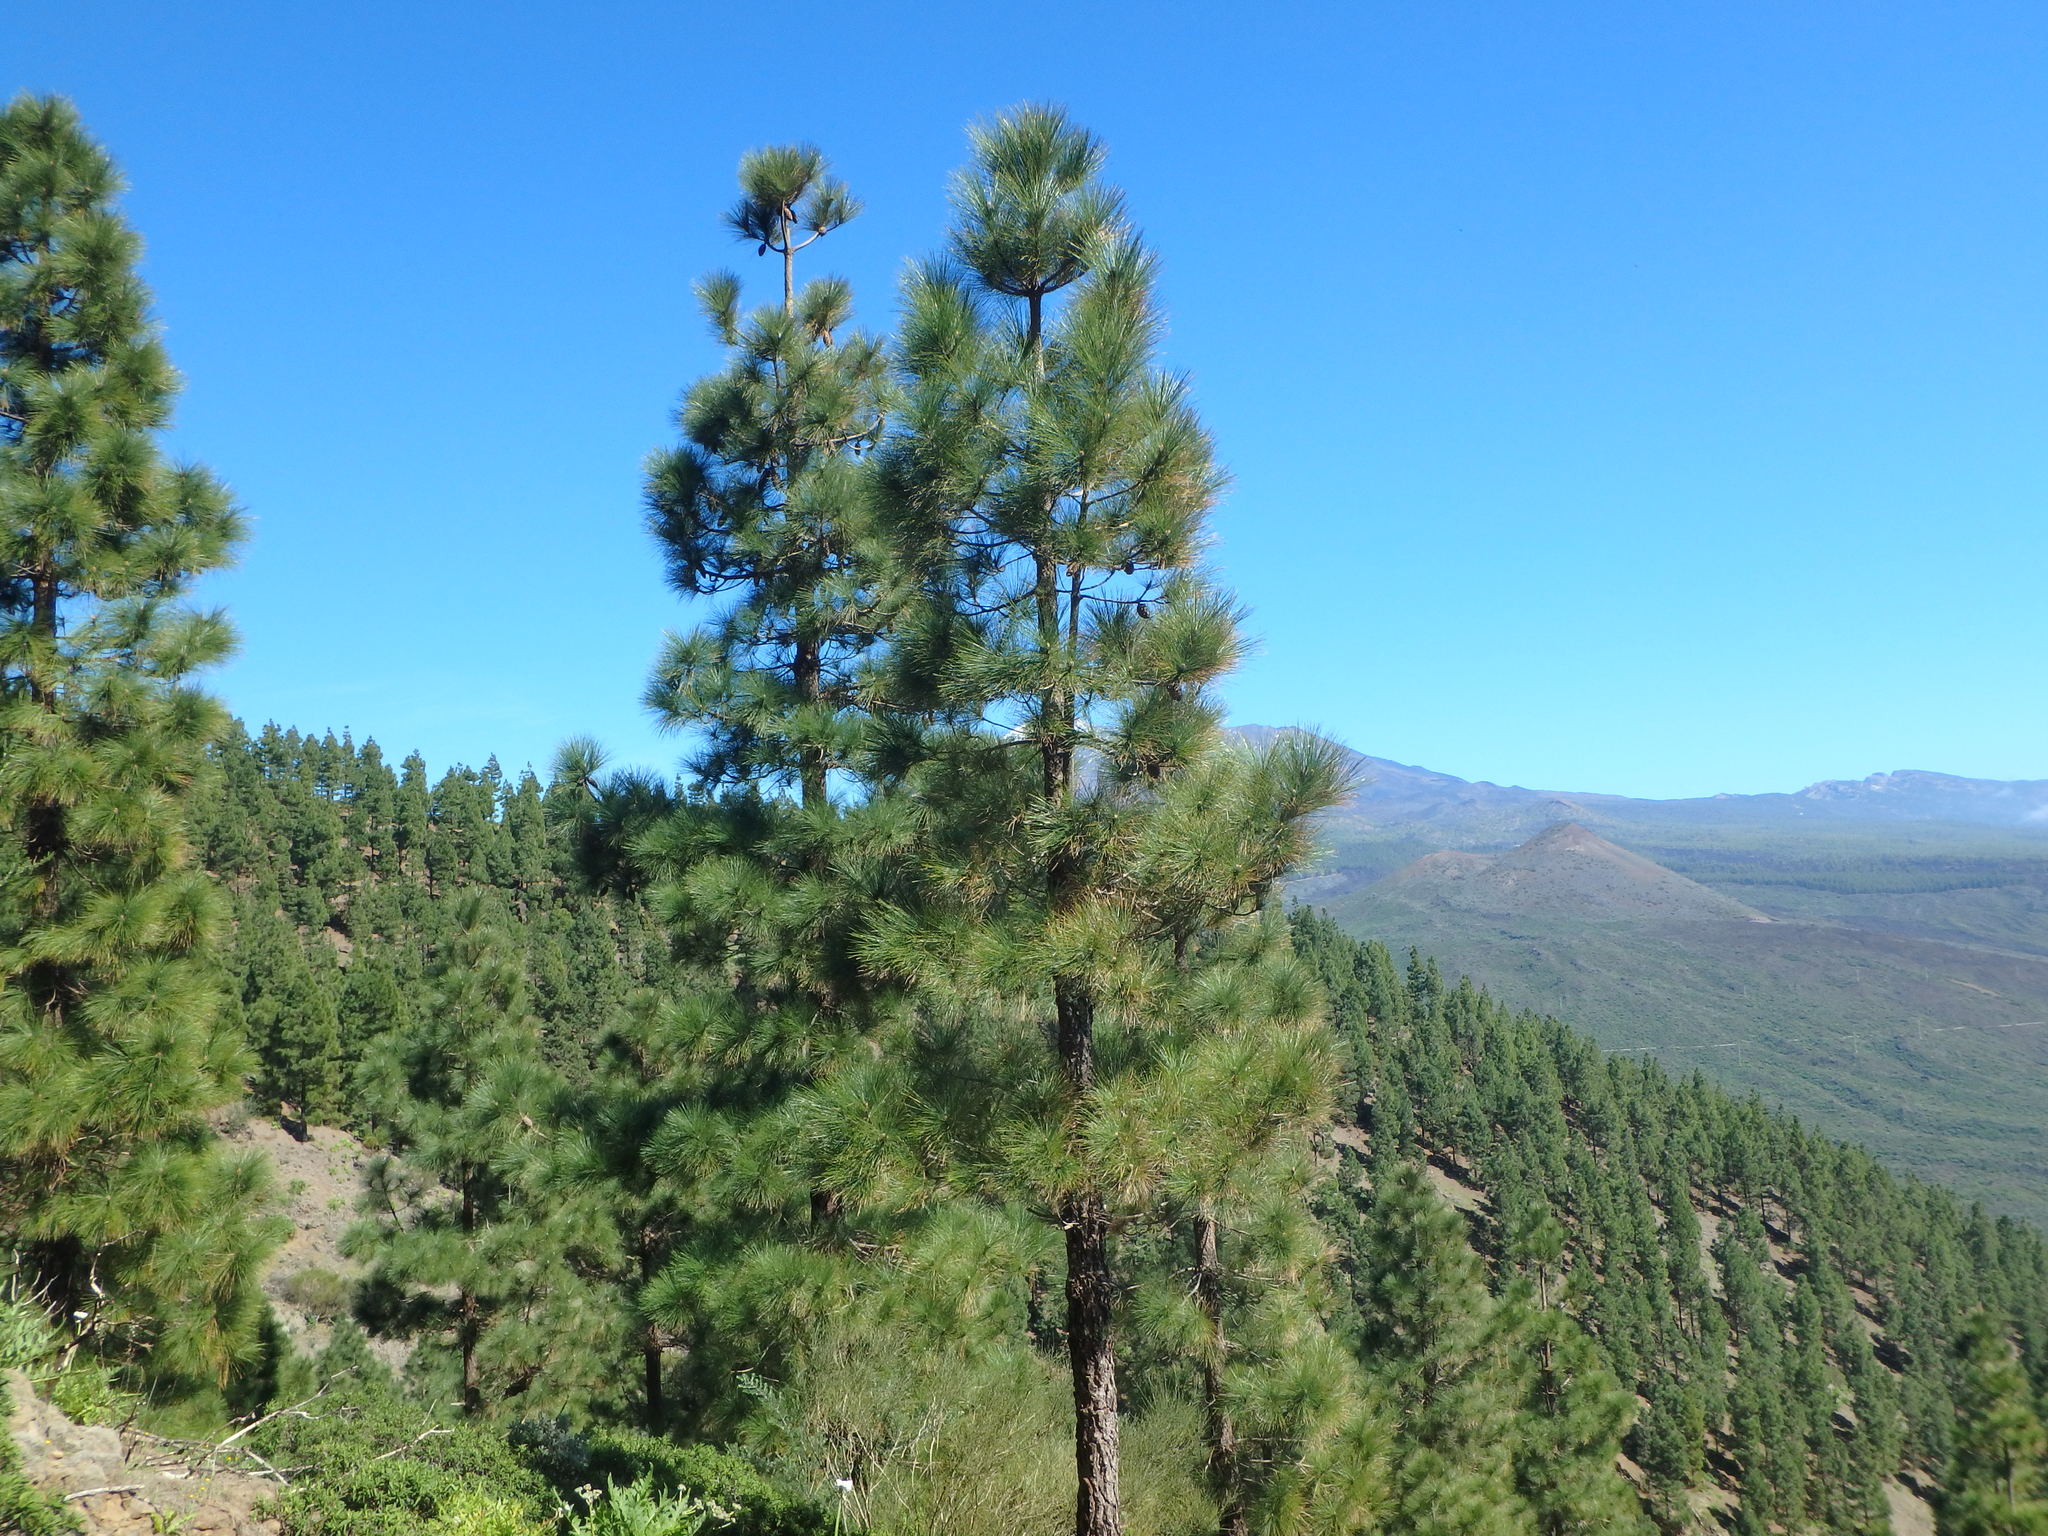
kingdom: Plantae
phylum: Tracheophyta
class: Pinopsida
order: Pinales
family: Pinaceae
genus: Pinus
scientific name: Pinus canariensis
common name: Canary islands pine
